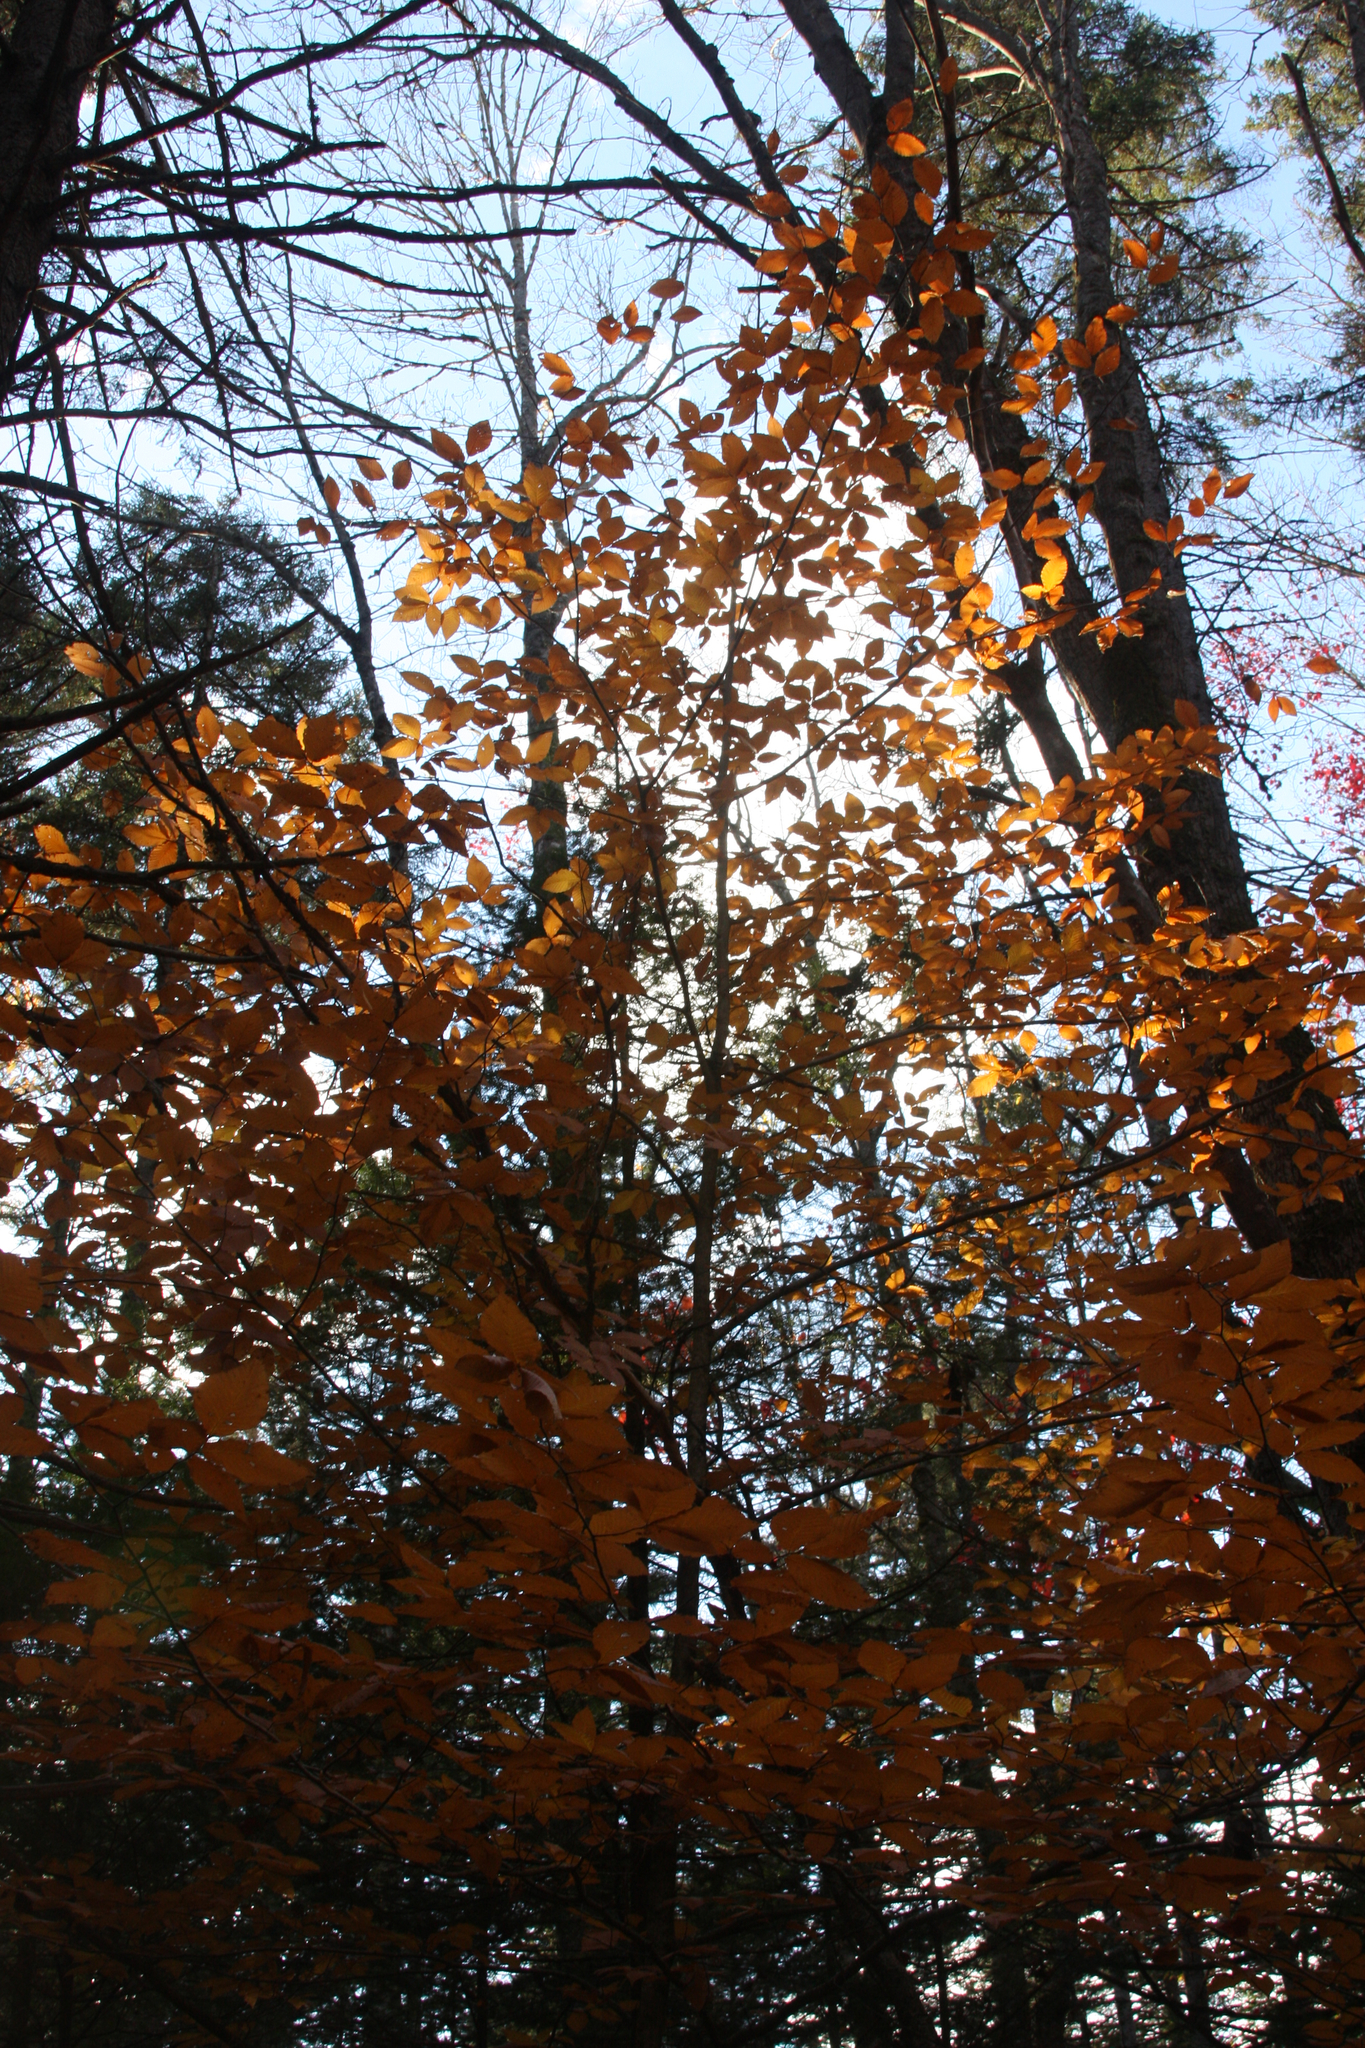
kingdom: Plantae
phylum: Tracheophyta
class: Magnoliopsida
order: Fagales
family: Fagaceae
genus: Fagus
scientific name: Fagus grandifolia
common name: American beech
